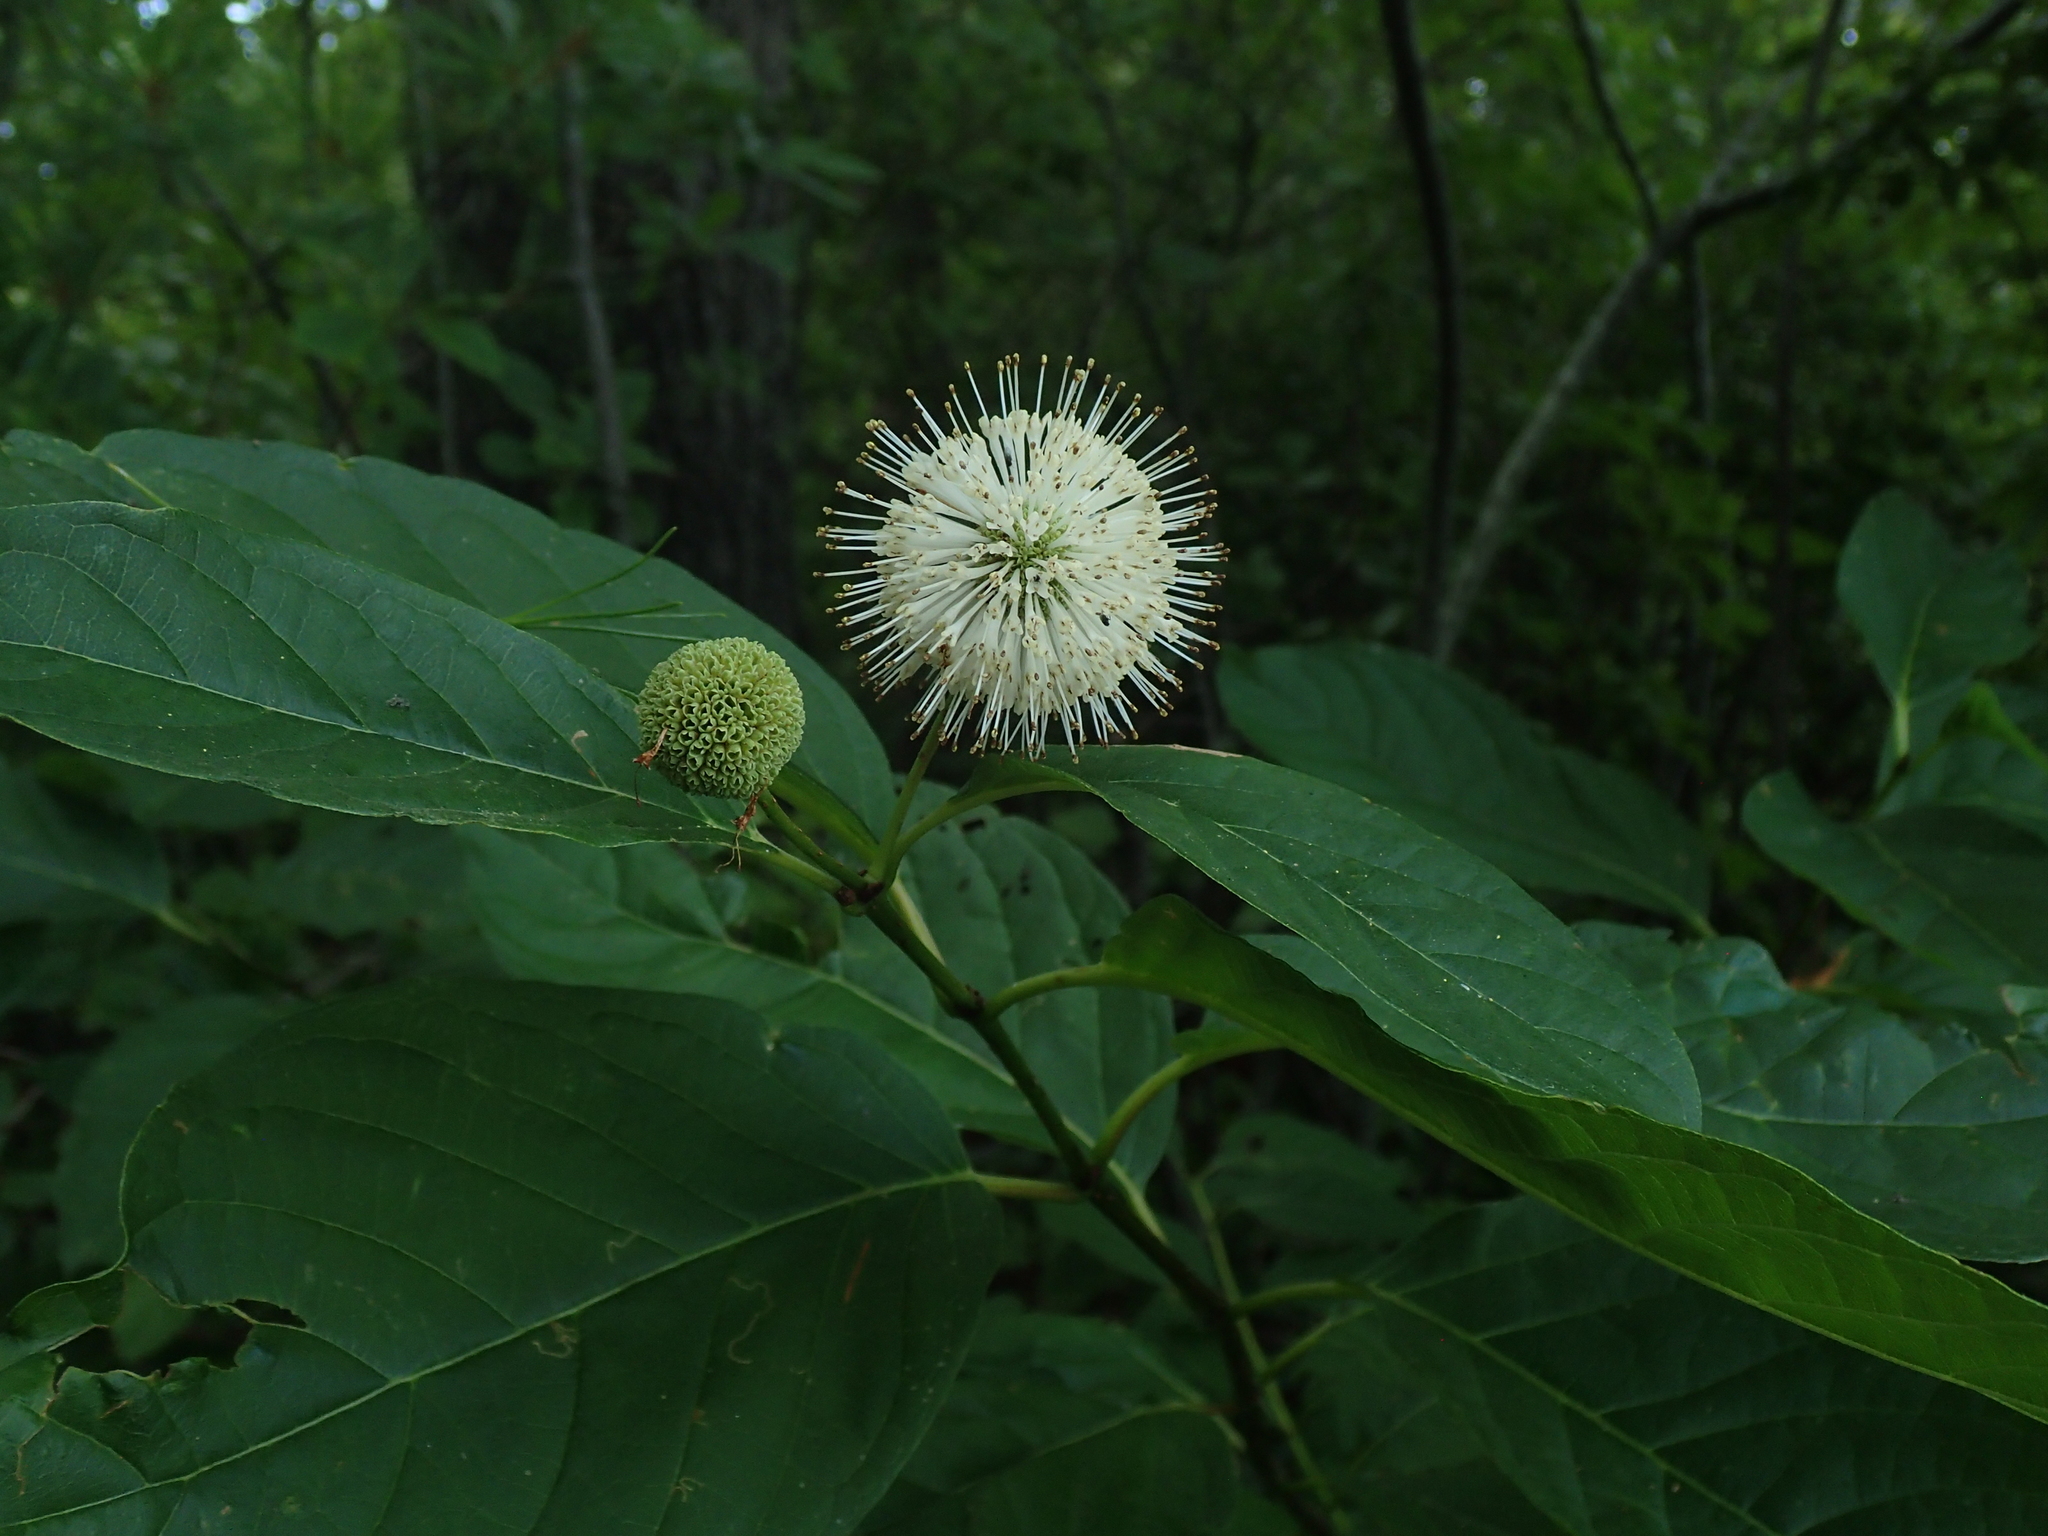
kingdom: Plantae
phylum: Tracheophyta
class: Magnoliopsida
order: Gentianales
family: Rubiaceae
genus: Cephalanthus
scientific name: Cephalanthus occidentalis
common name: Button-willow
